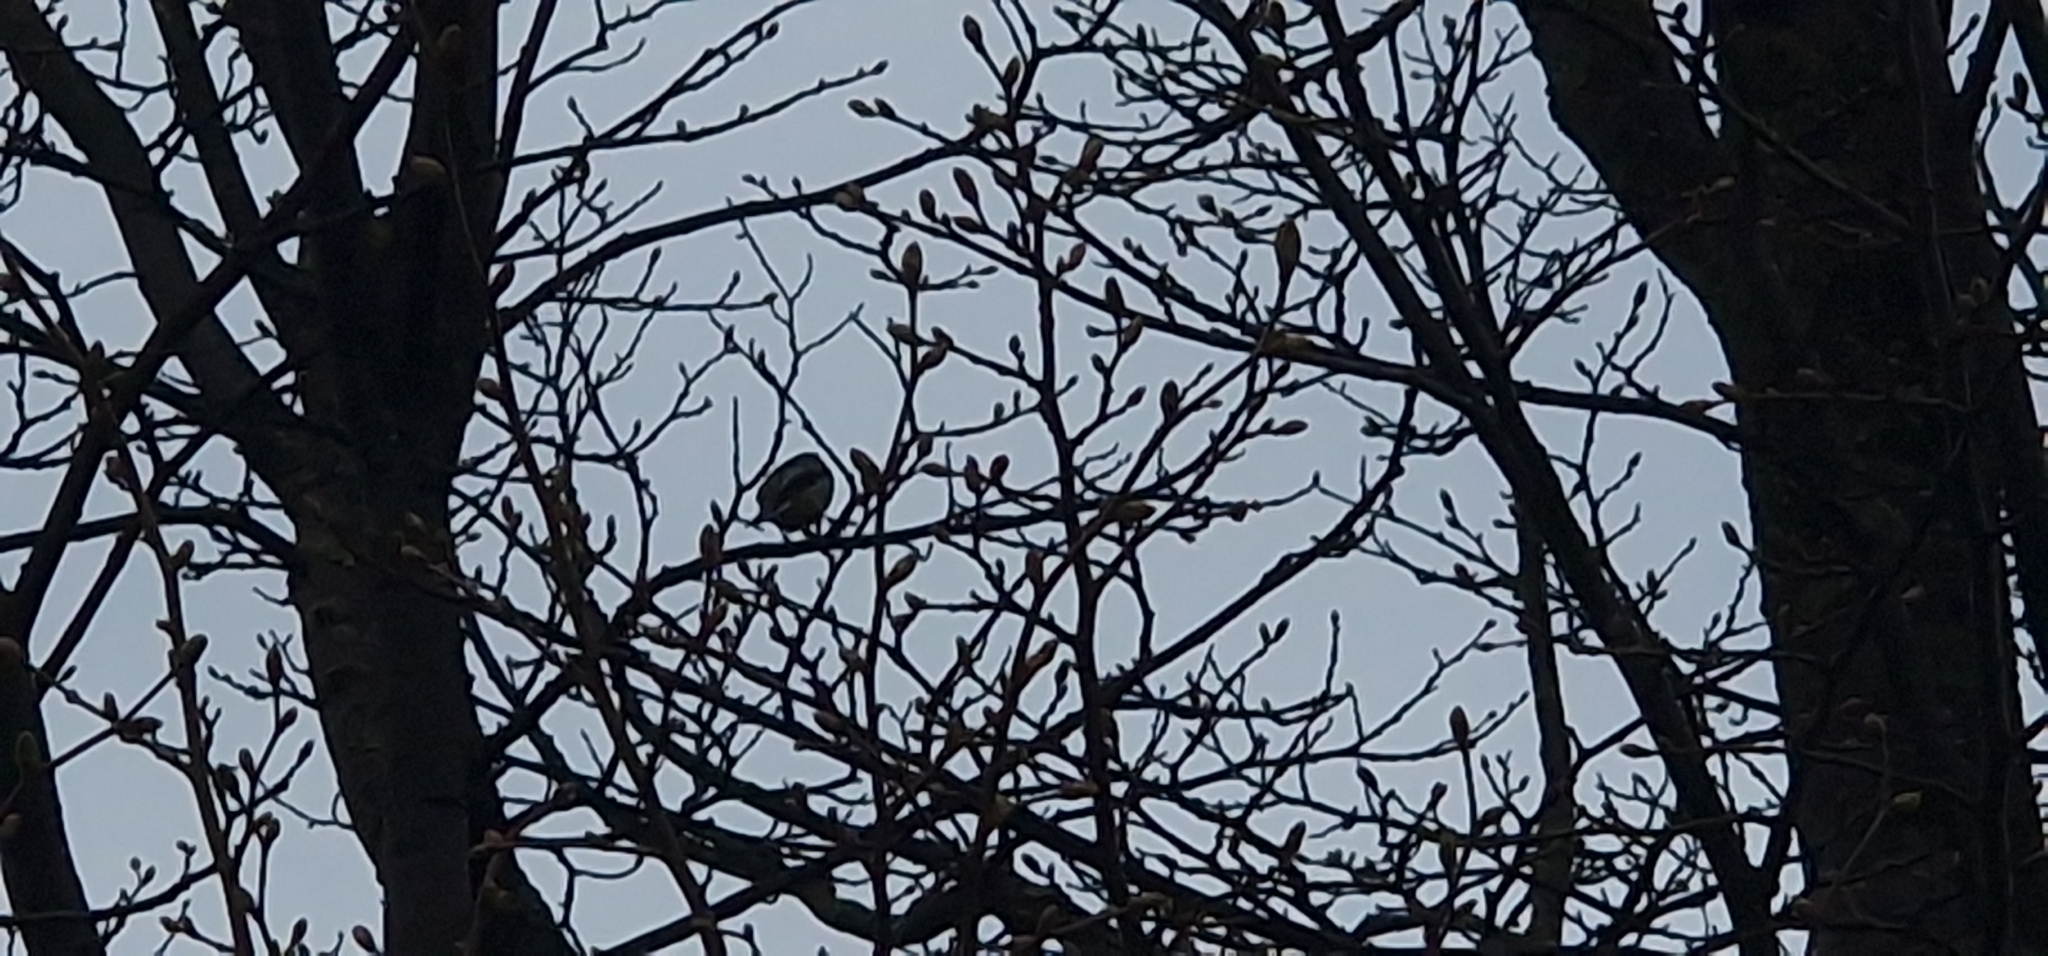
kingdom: Animalia
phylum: Chordata
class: Aves
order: Passeriformes
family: Aegithalidae
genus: Aegithalos
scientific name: Aegithalos caudatus
